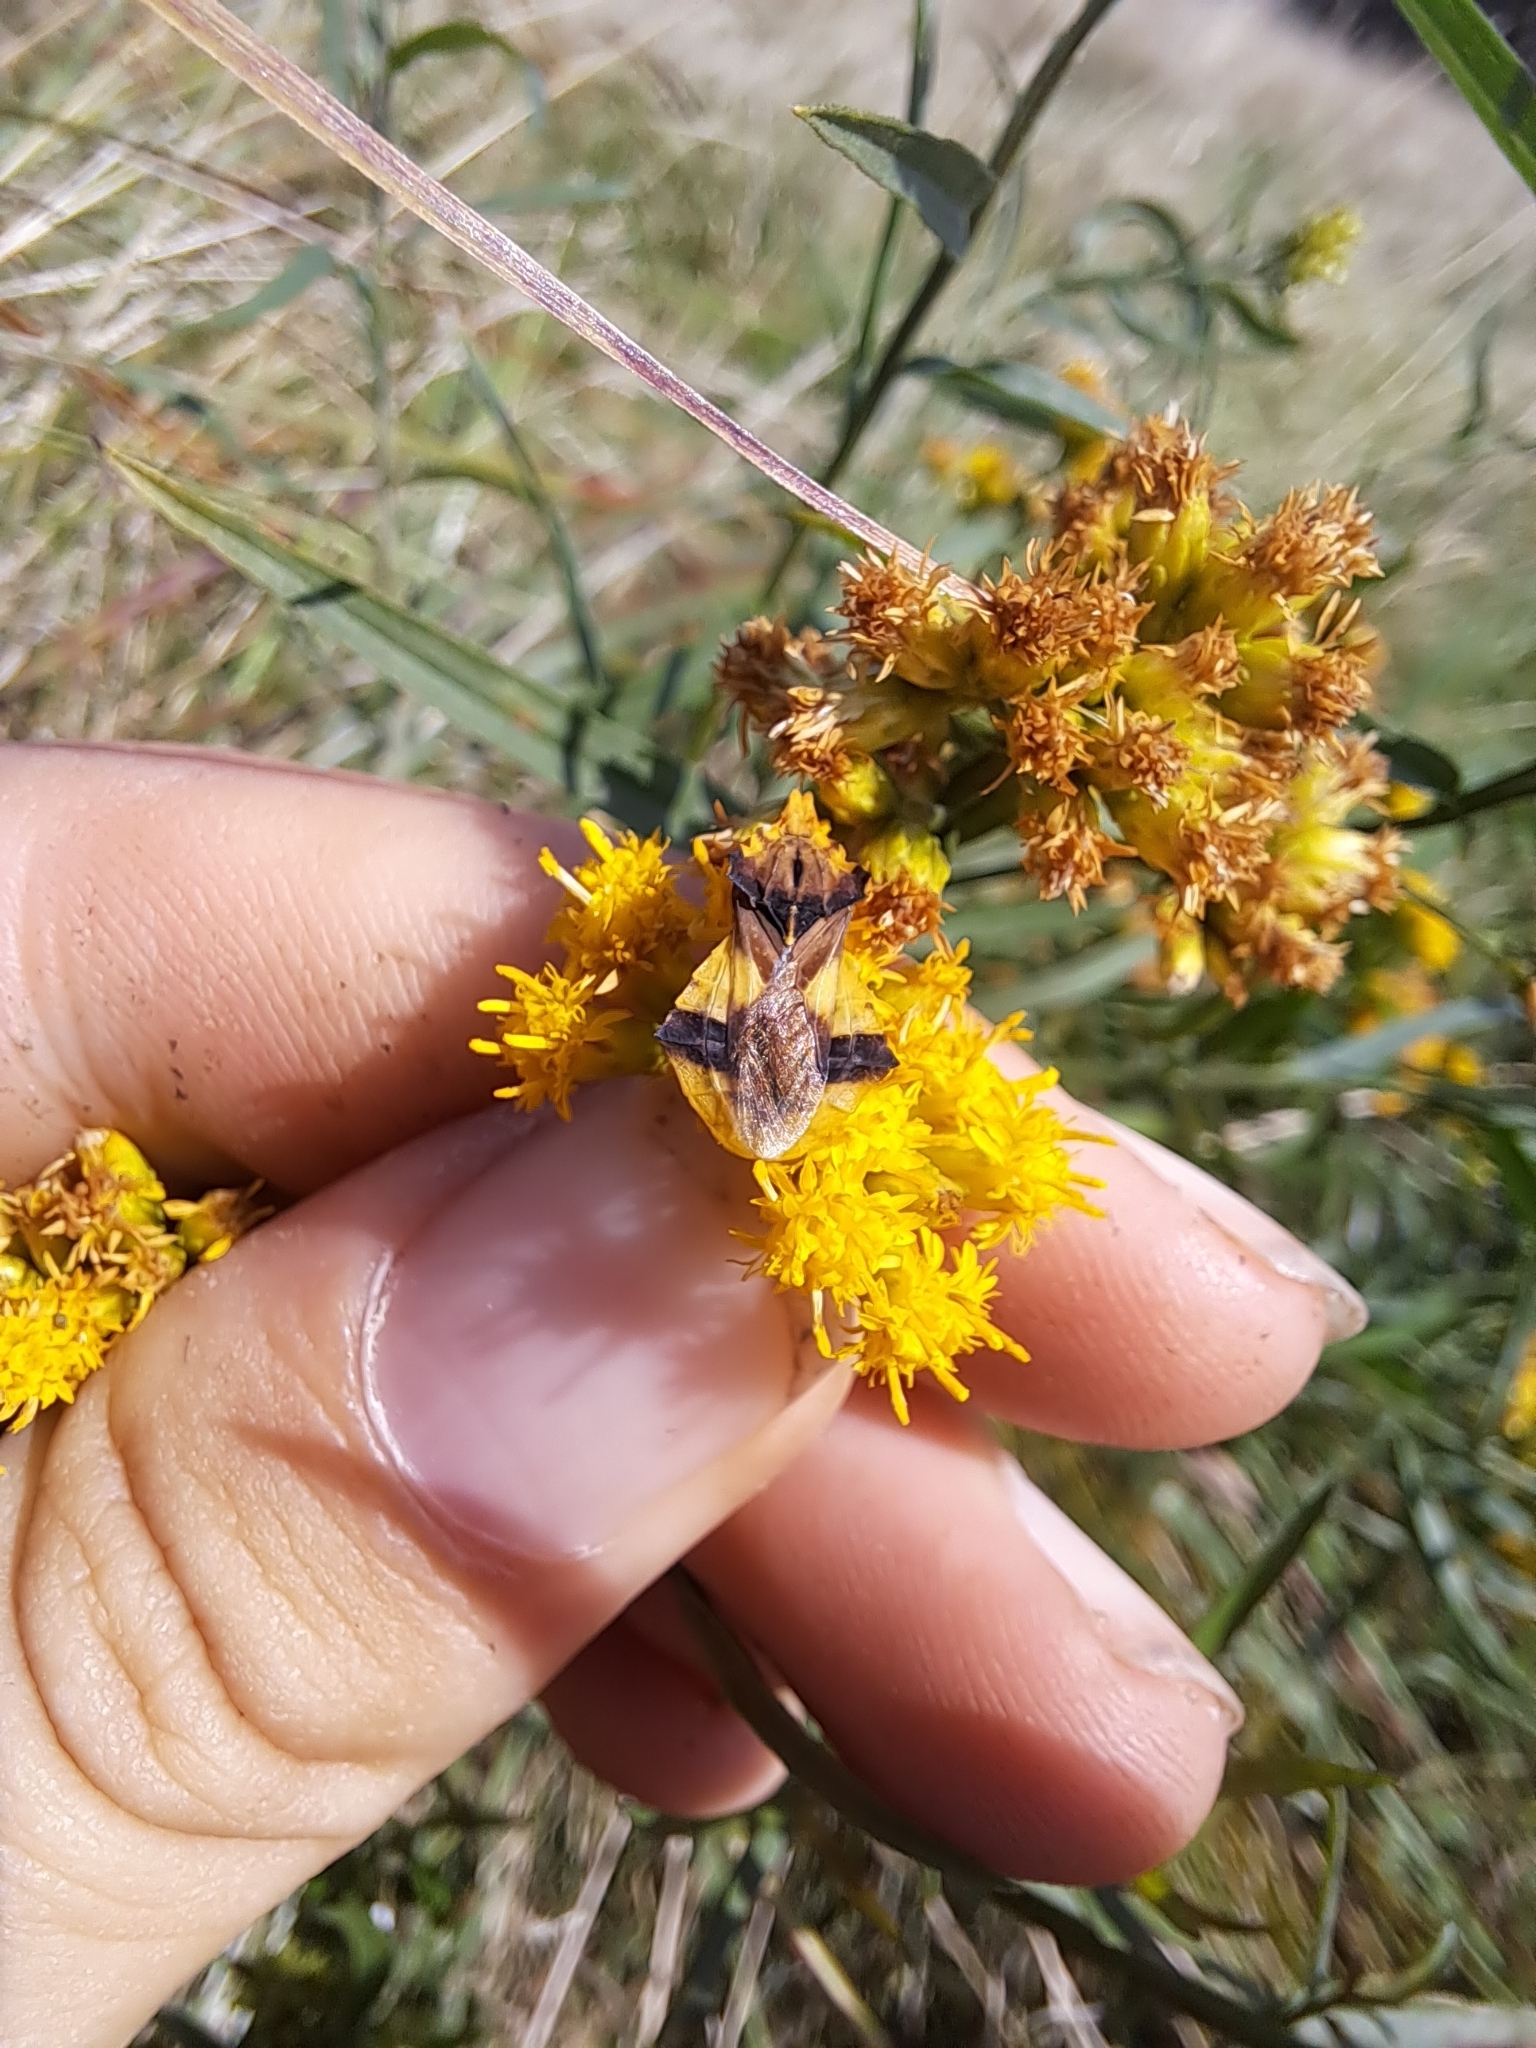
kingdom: Animalia
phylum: Arthropoda
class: Insecta
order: Hemiptera
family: Reduviidae
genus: Phymata
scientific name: Phymata americana
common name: Jagged ambush bug
